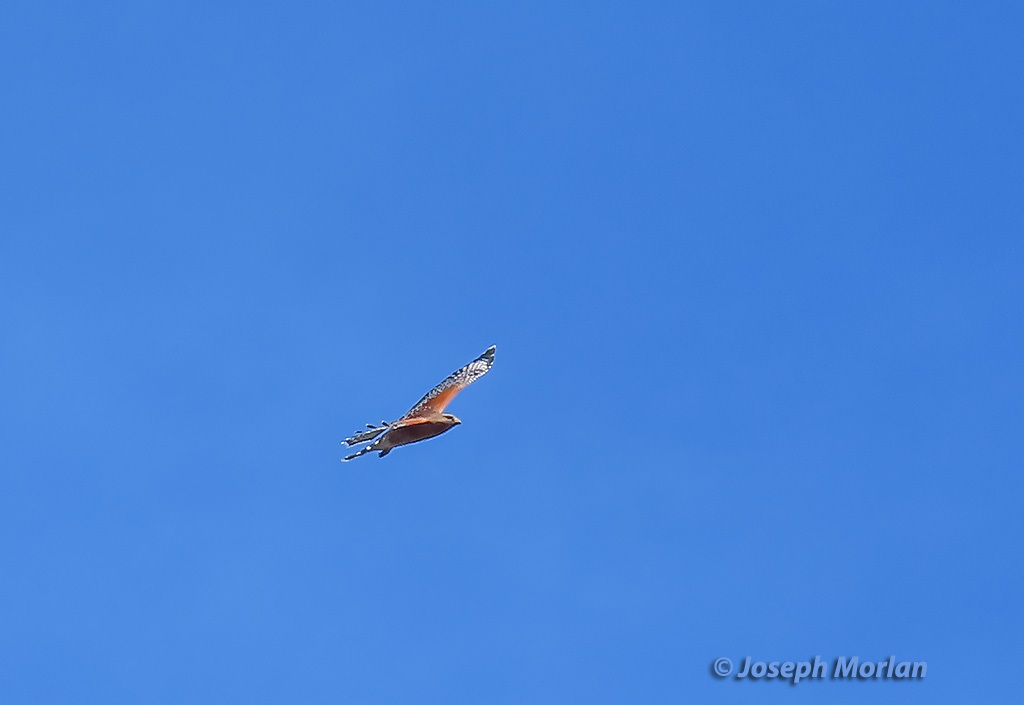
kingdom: Animalia
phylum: Chordata
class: Aves
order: Accipitriformes
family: Accipitridae
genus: Buteo
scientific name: Buteo lineatus
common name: Red-shouldered hawk
